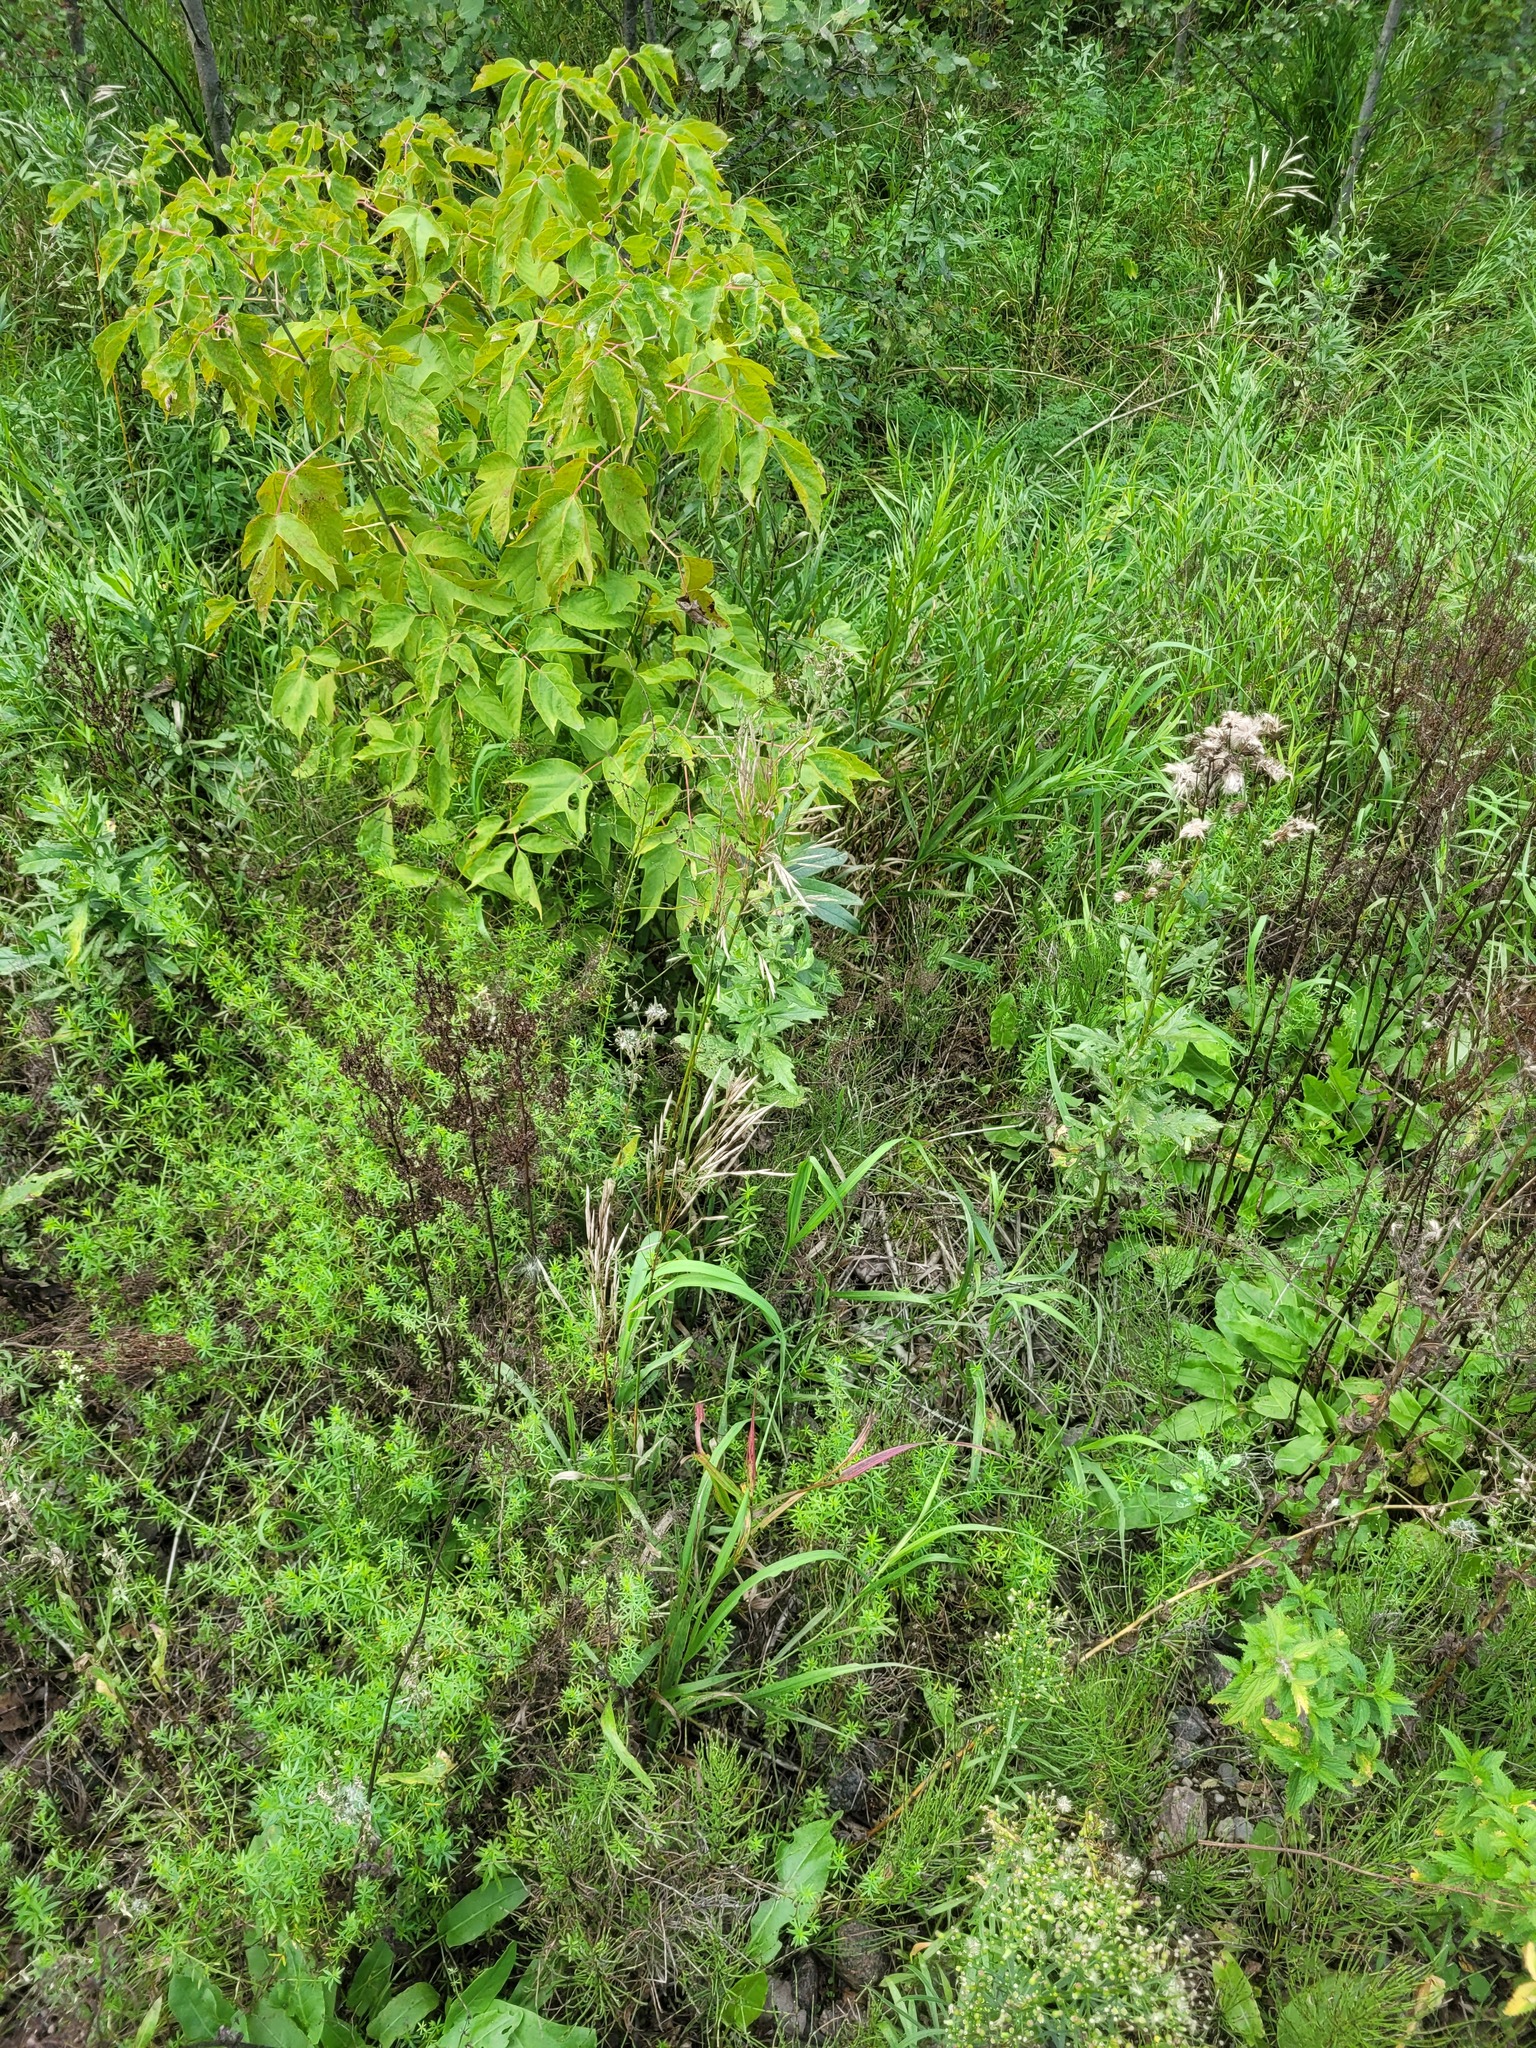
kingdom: Plantae
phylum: Tracheophyta
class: Liliopsida
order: Poales
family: Poaceae
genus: Bromus
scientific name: Bromus inermis
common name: Smooth brome
